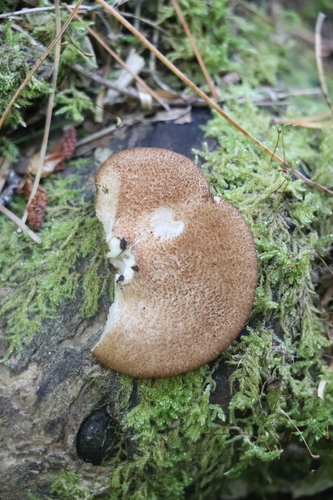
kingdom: Fungi
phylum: Basidiomycota
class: Agaricomycetes
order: Agaricales
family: Crepidotaceae
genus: Crepidotus
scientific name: Crepidotus applanatus
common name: Flat crep
